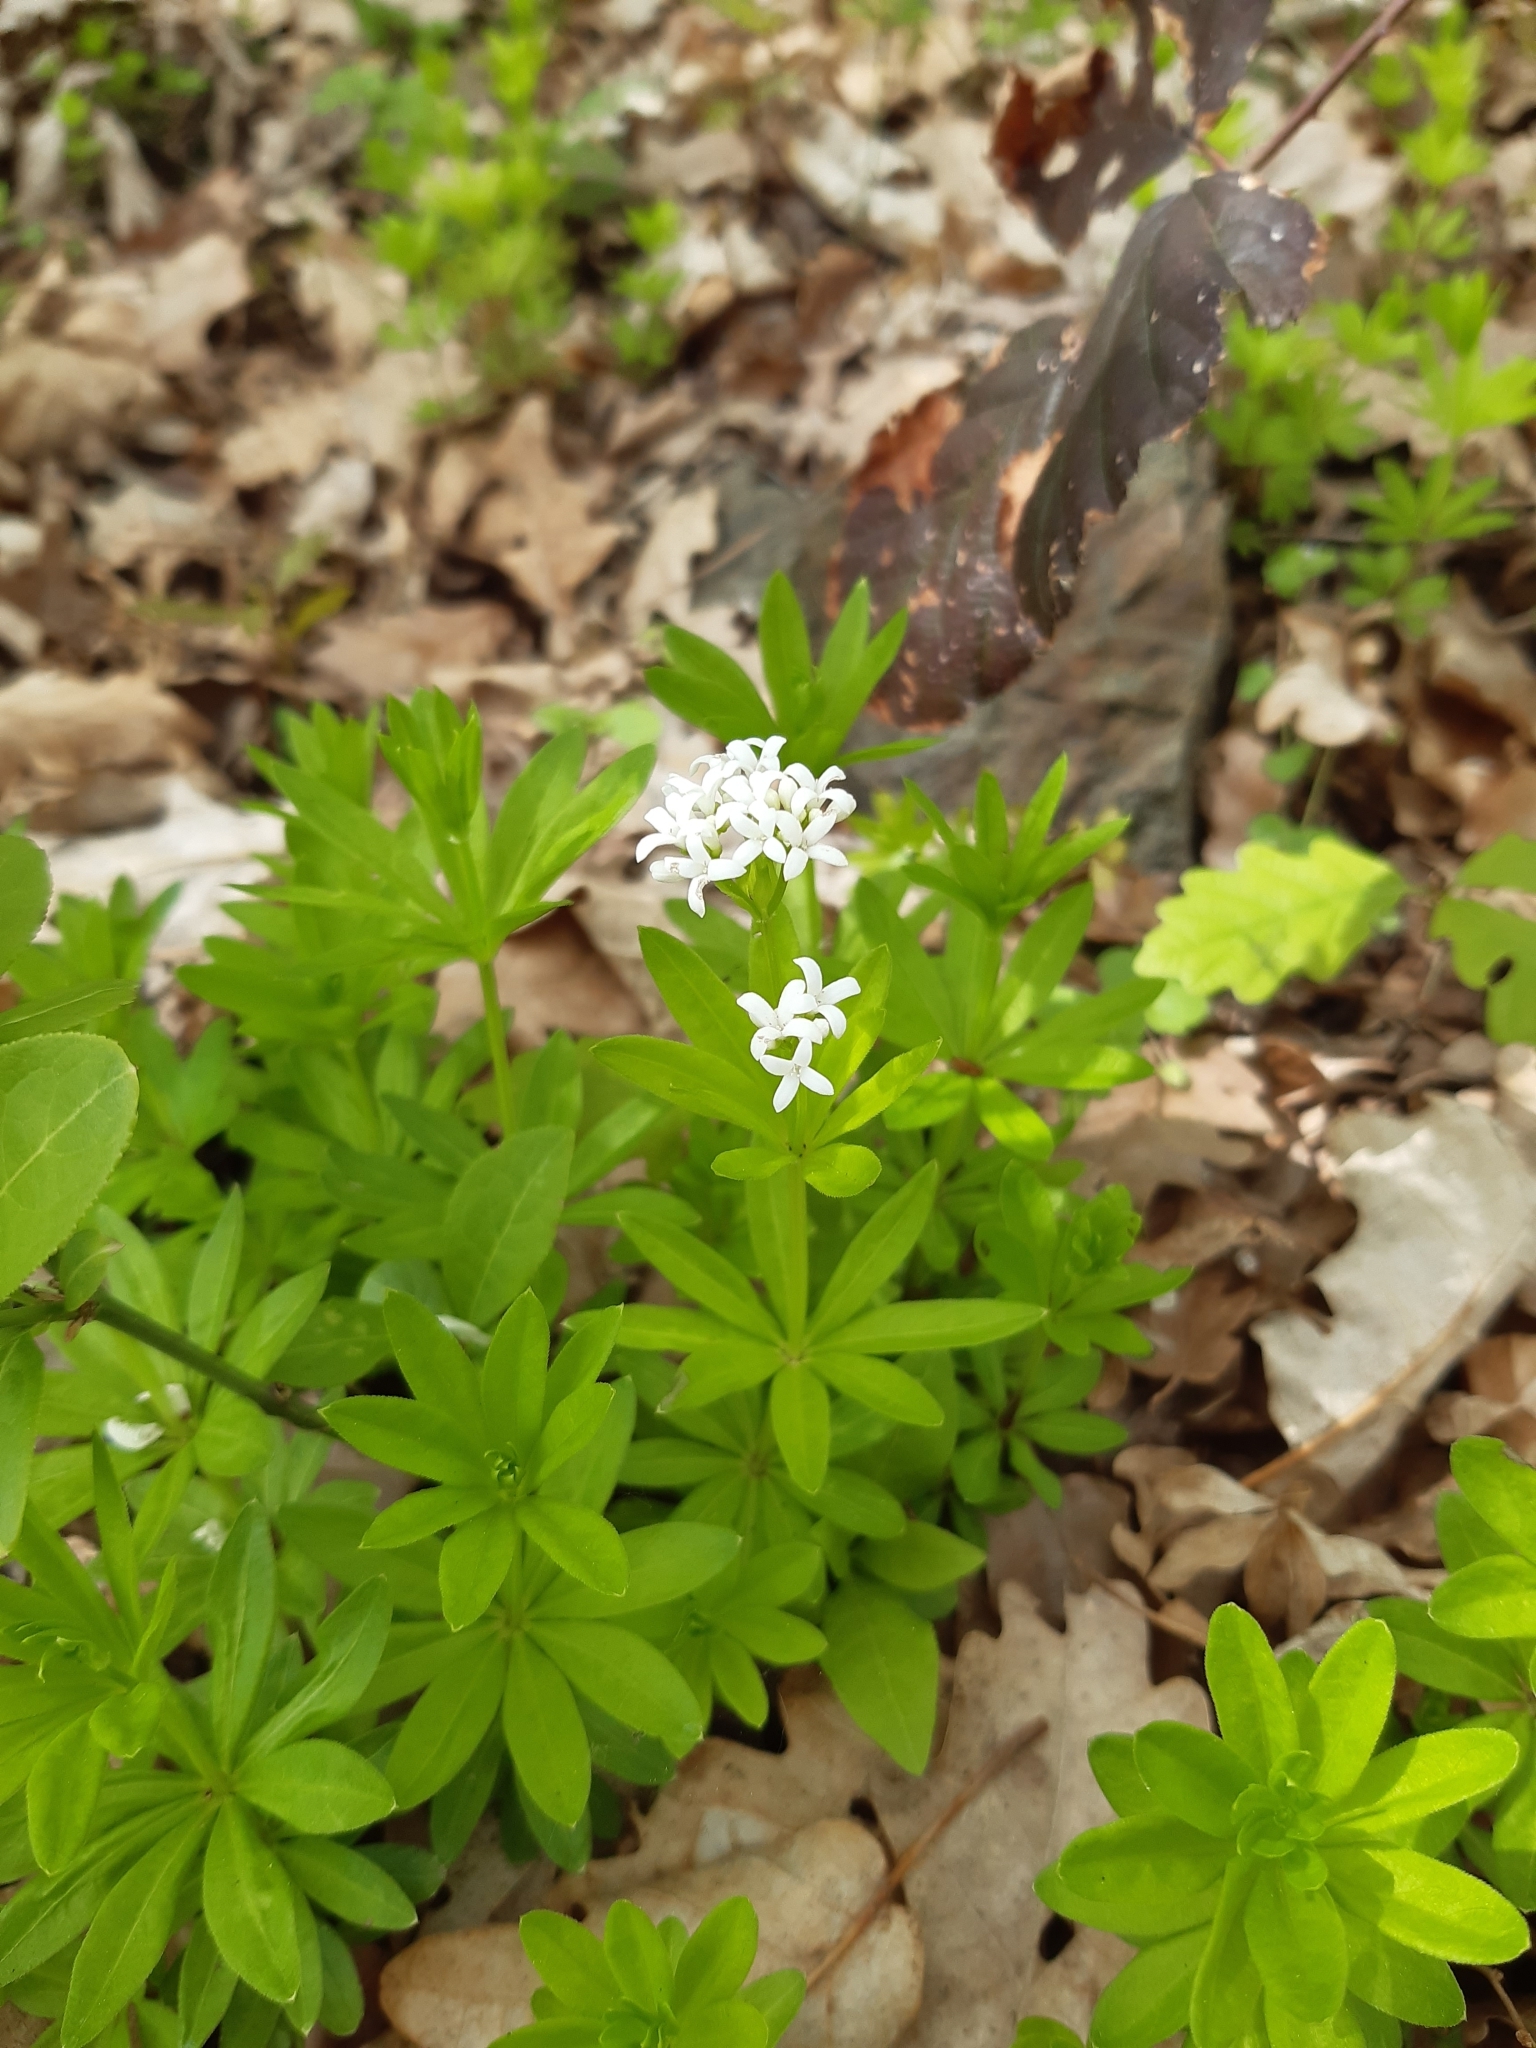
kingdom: Plantae
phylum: Tracheophyta
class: Magnoliopsida
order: Gentianales
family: Rubiaceae
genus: Galium
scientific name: Galium odoratum
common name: Sweet woodruff
